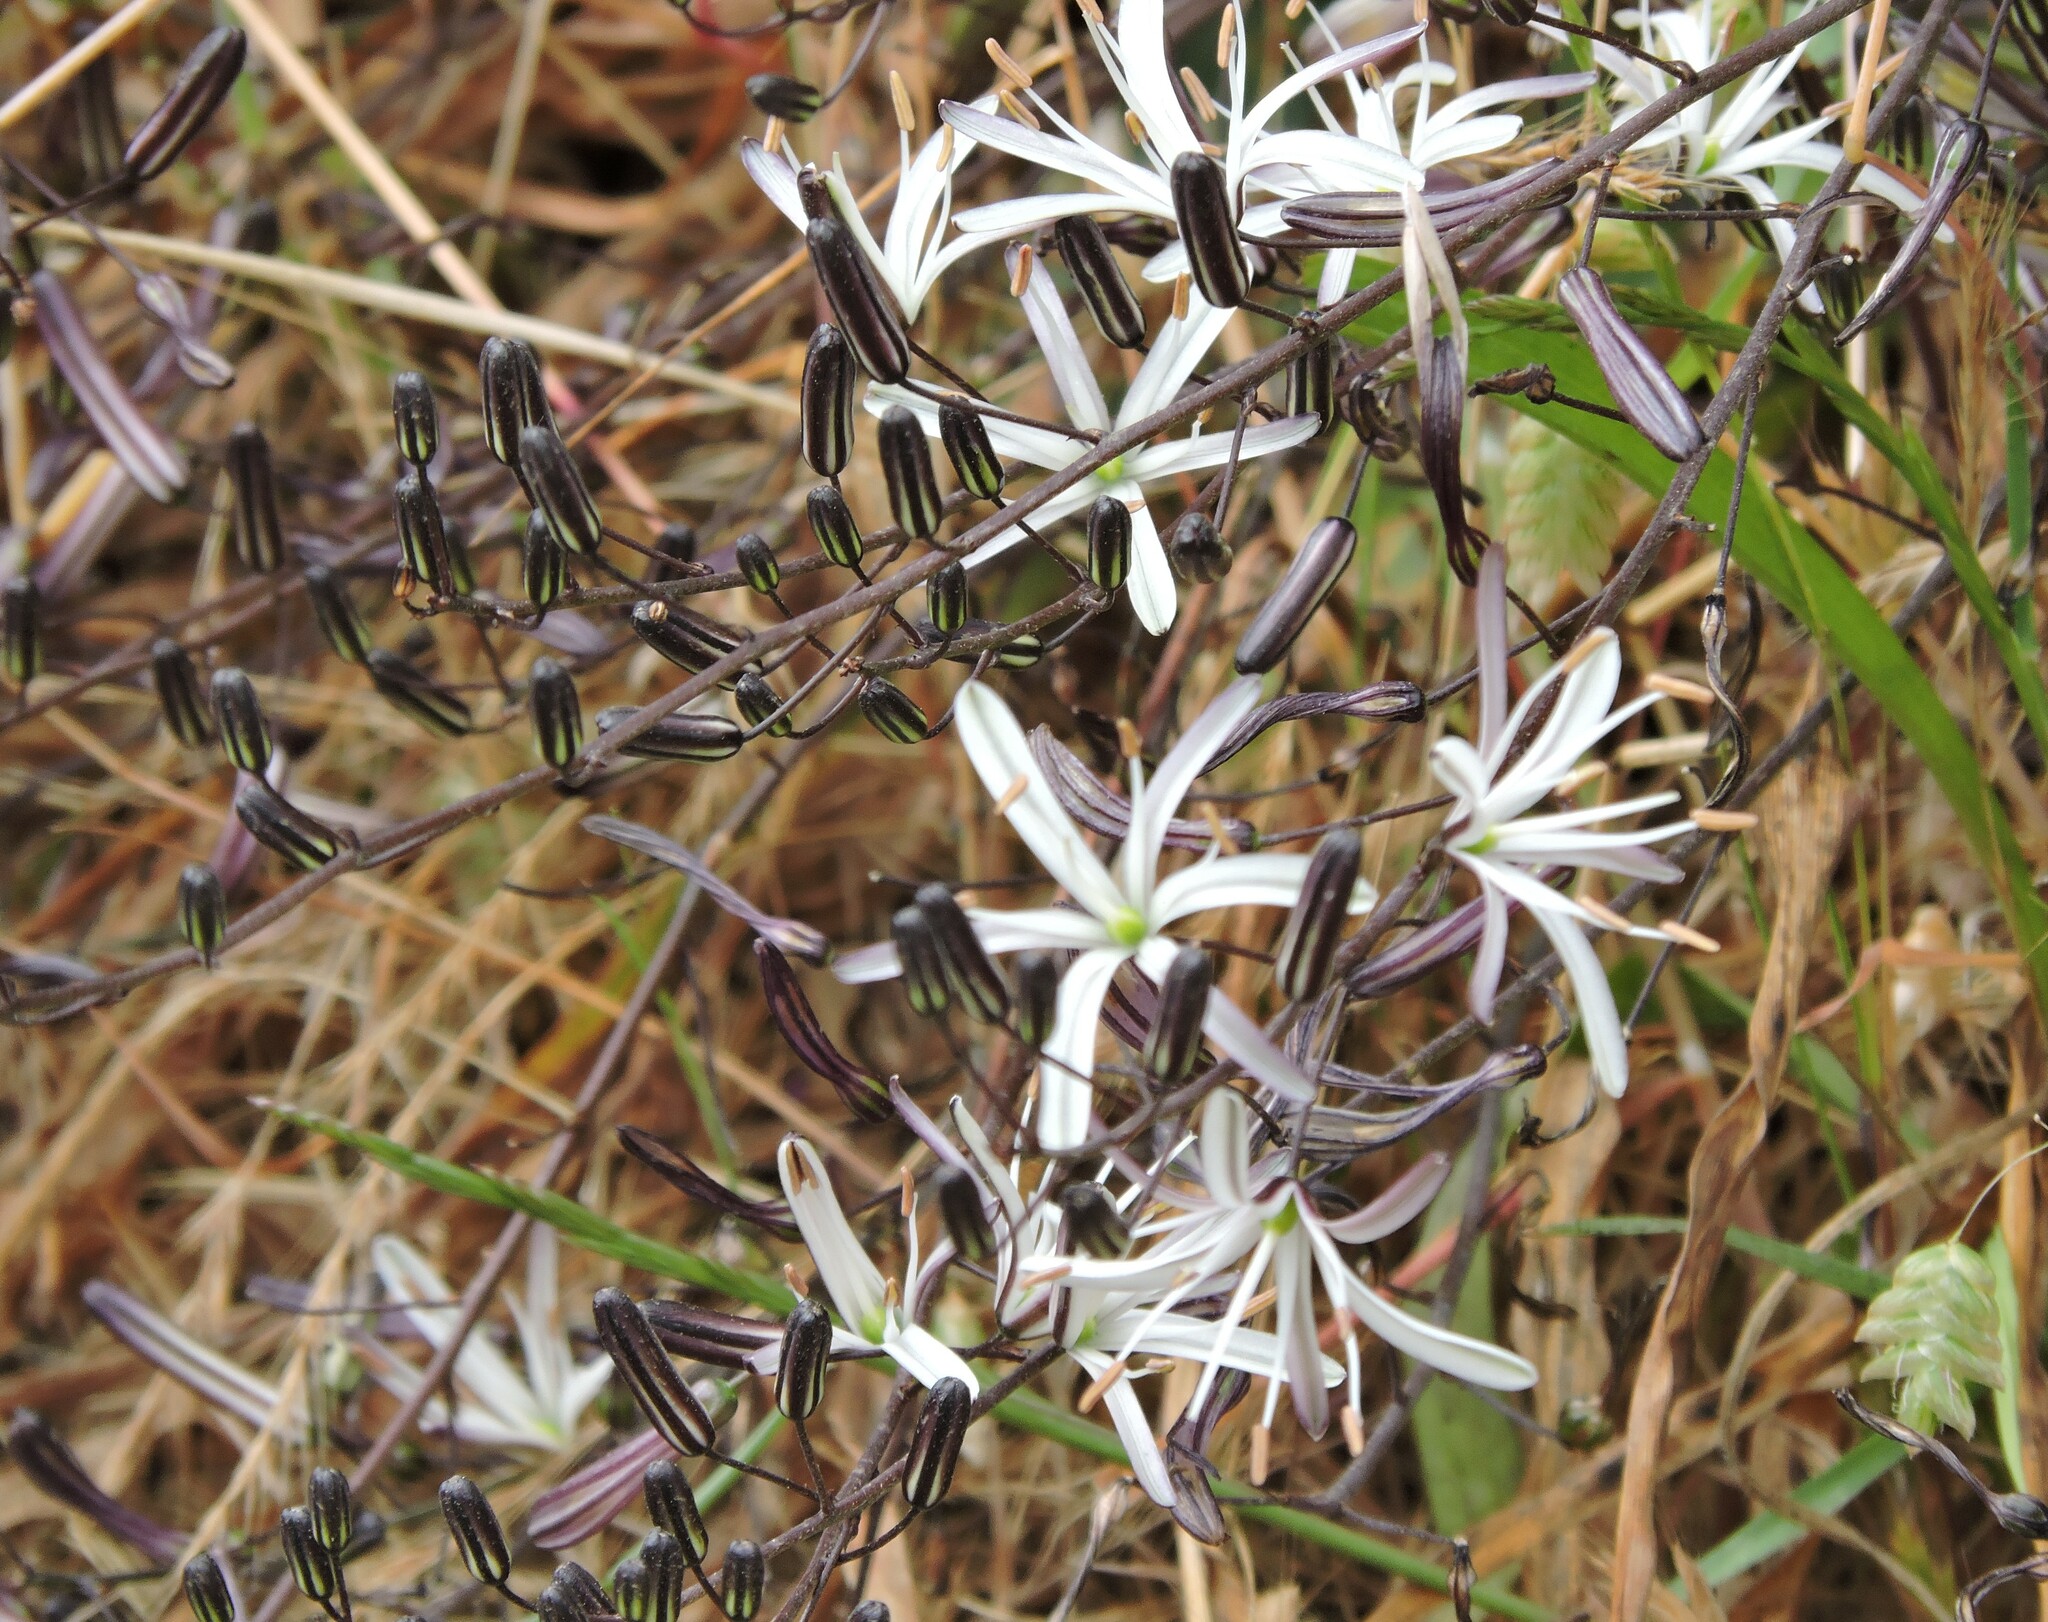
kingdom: Plantae
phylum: Tracheophyta
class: Liliopsida
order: Asparagales
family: Asparagaceae
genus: Chlorogalum
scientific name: Chlorogalum pomeridianum
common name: Amole
